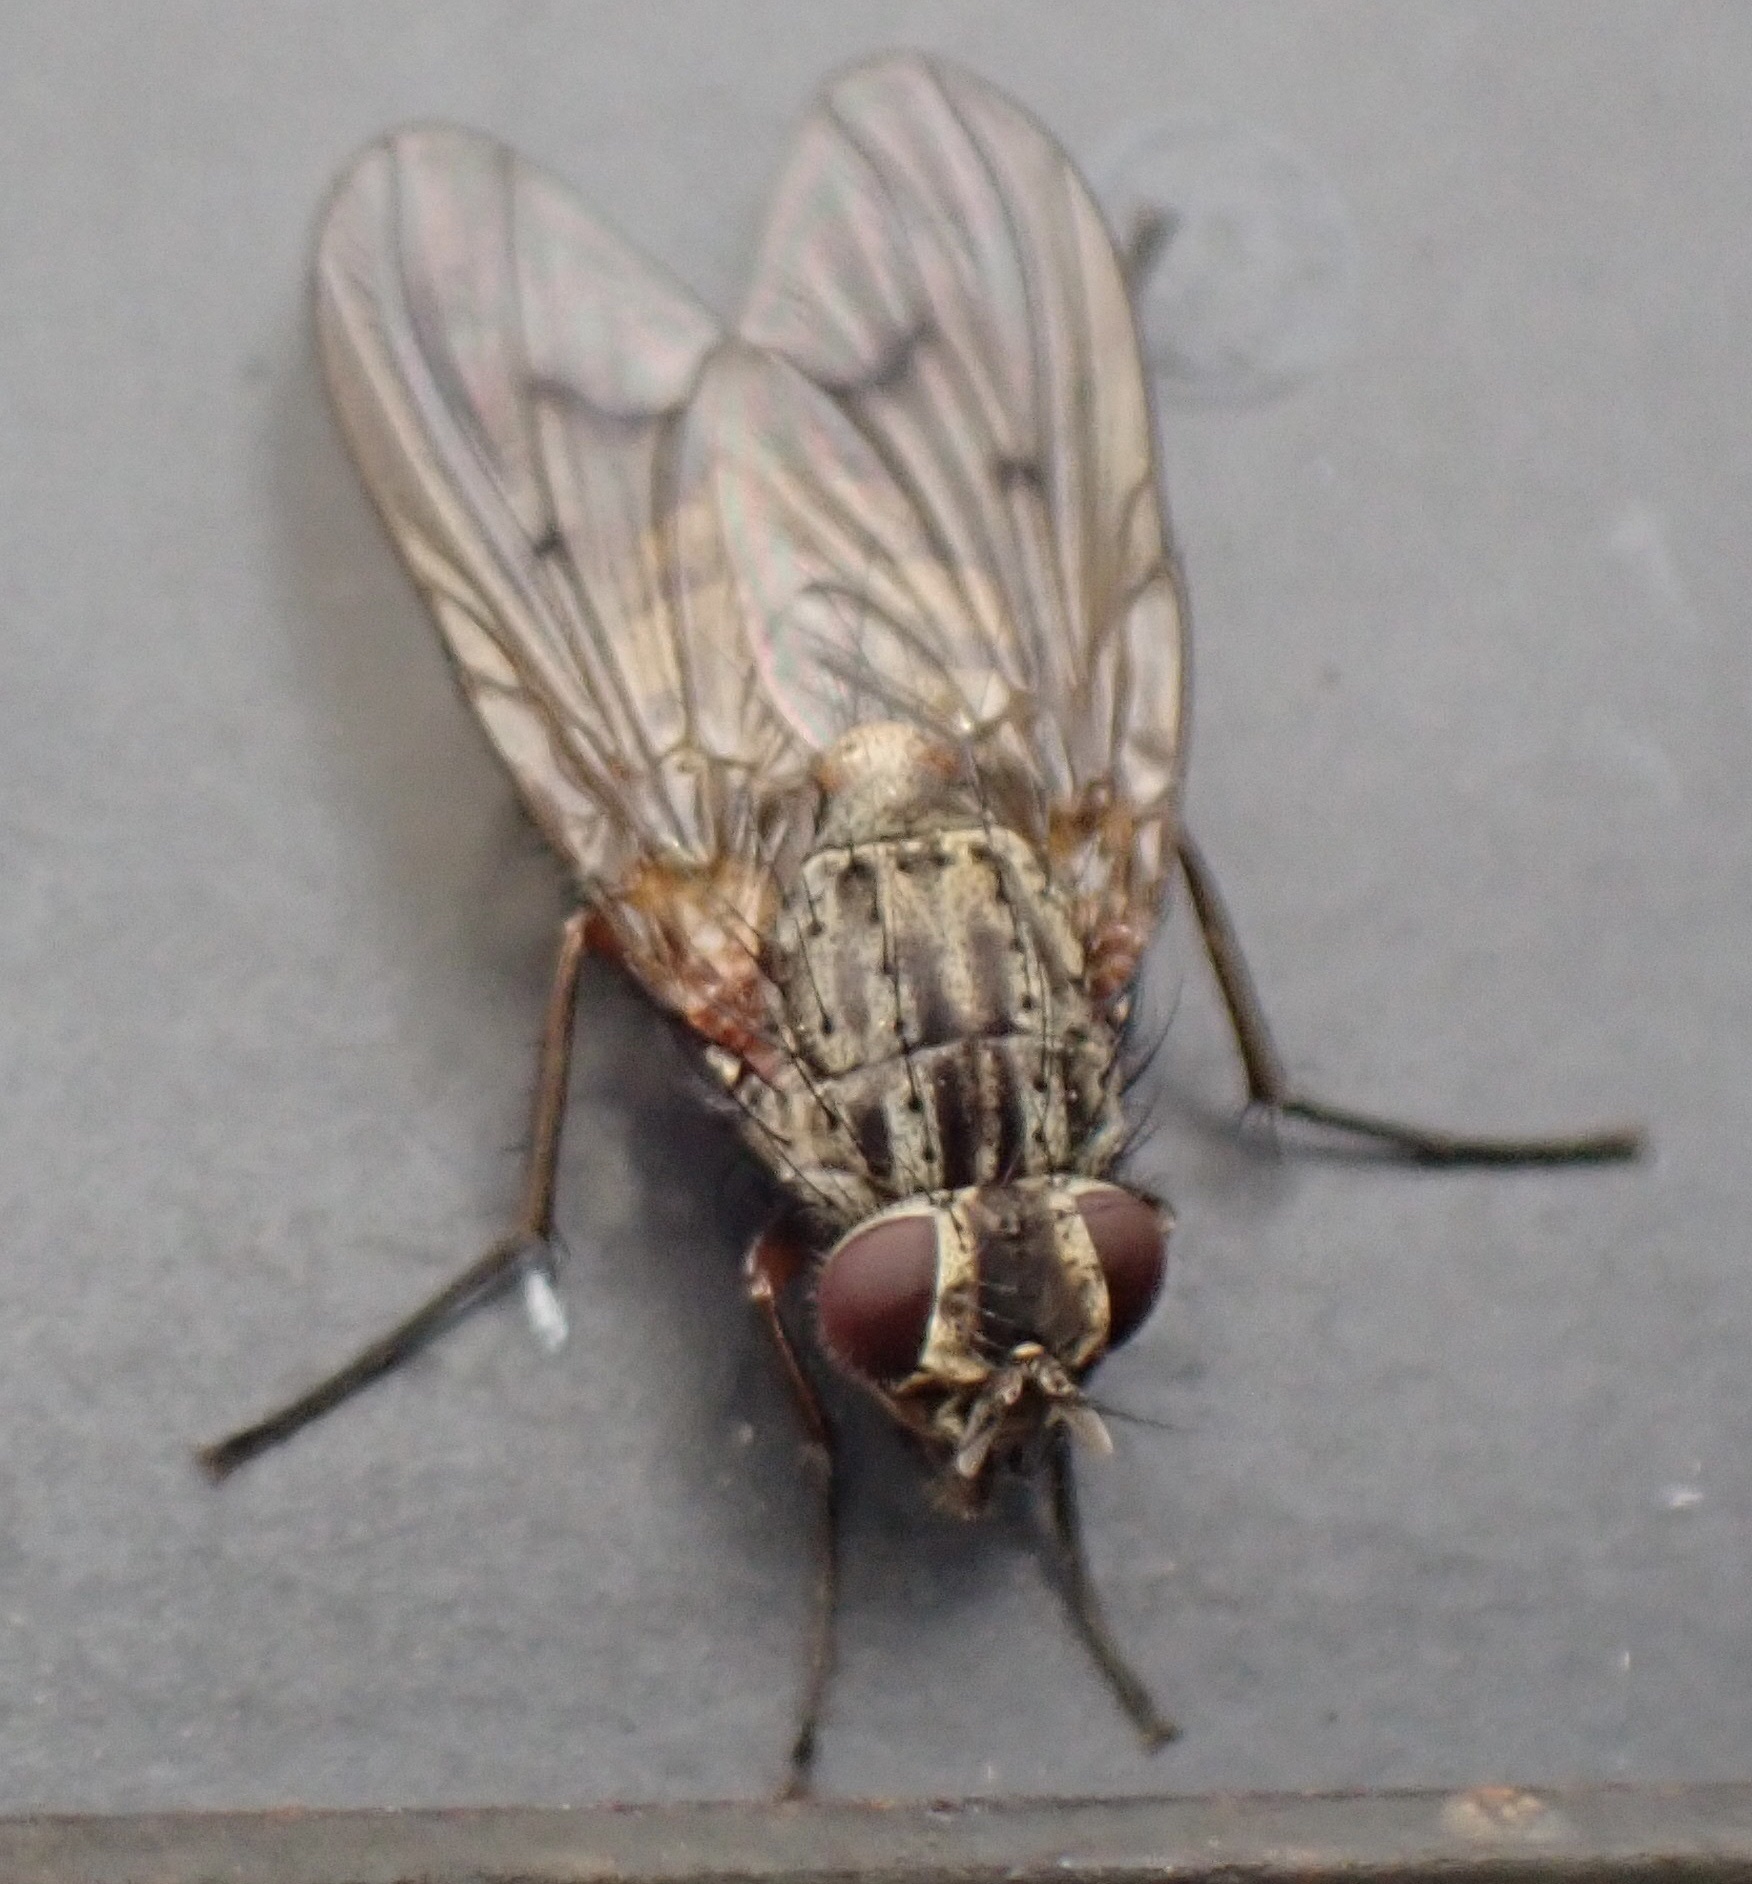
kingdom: Animalia
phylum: Arthropoda
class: Insecta
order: Diptera
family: Muscidae
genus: Phaonia
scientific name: Phaonia tuguriorum
